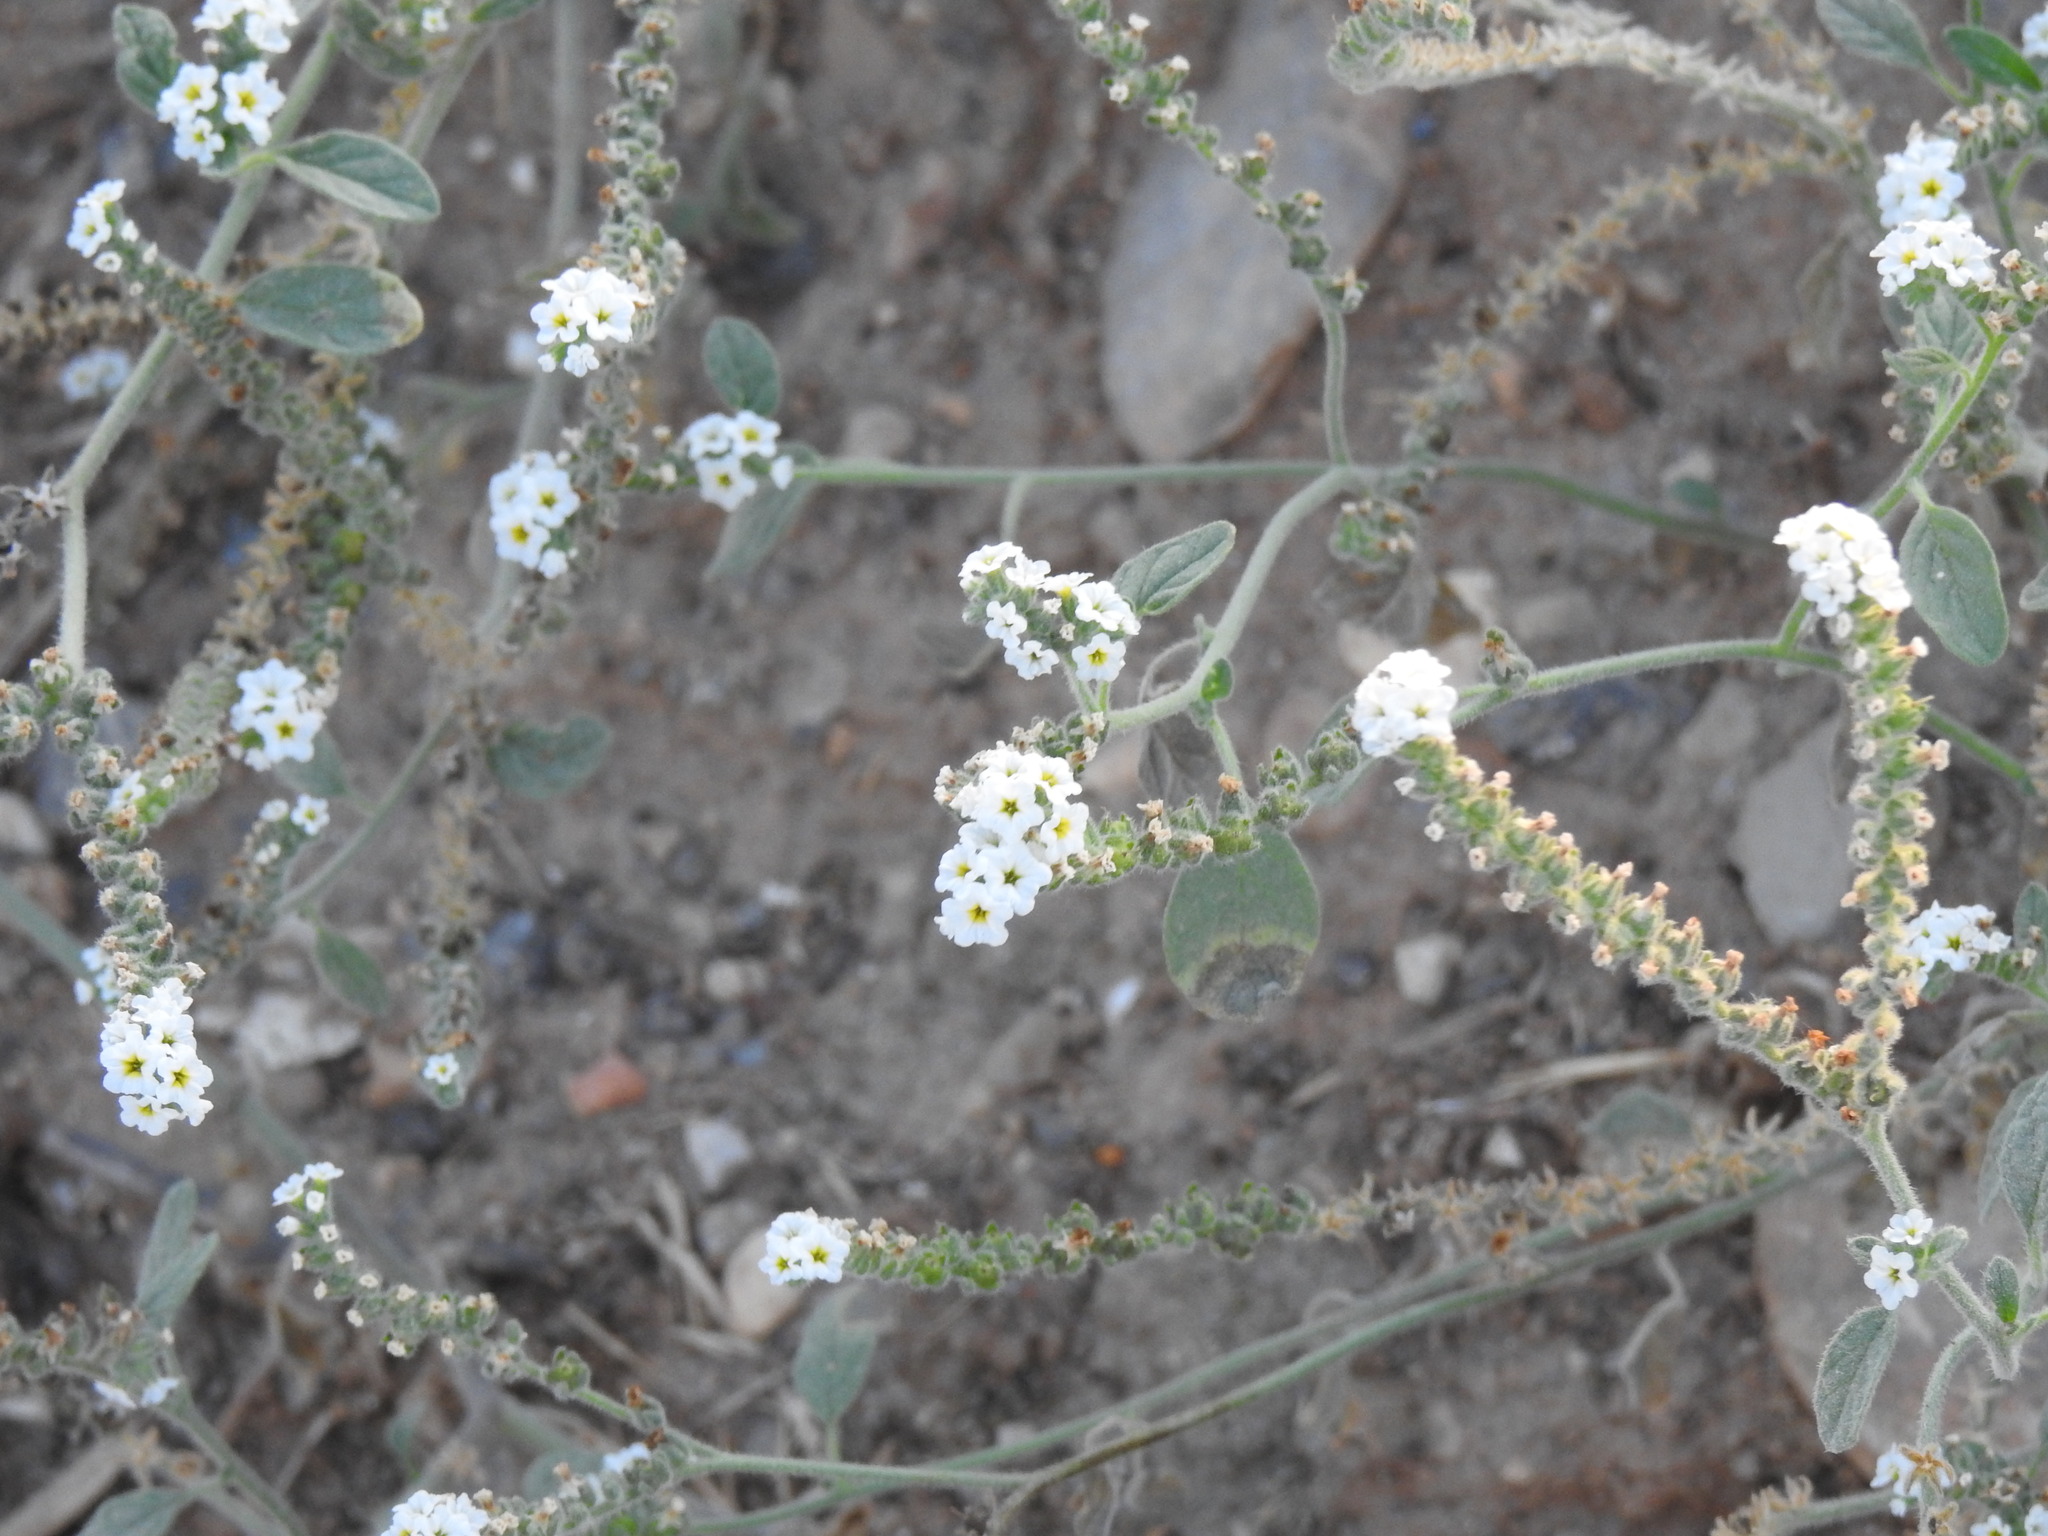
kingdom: Plantae
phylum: Tracheophyta
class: Magnoliopsida
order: Boraginales
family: Heliotropiaceae
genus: Heliotropium
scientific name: Heliotropium europaeum
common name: European heliotrope
